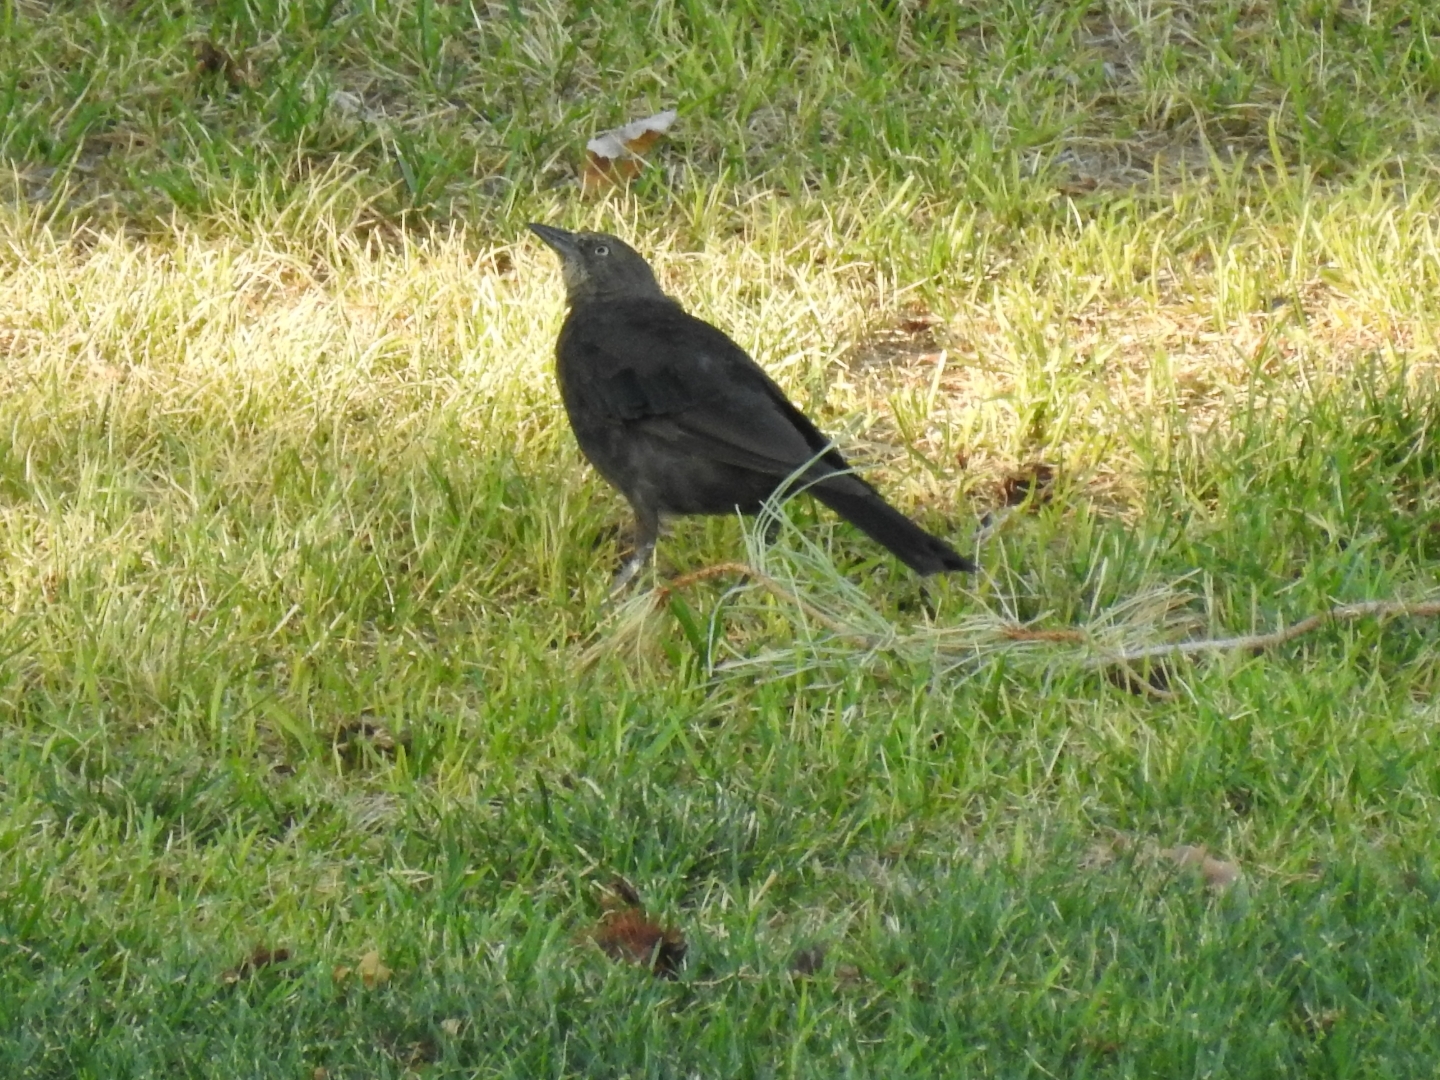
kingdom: Animalia
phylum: Chordata
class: Aves
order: Passeriformes
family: Icteridae
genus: Quiscalus
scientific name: Quiscalus mexicanus
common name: Great-tailed grackle
